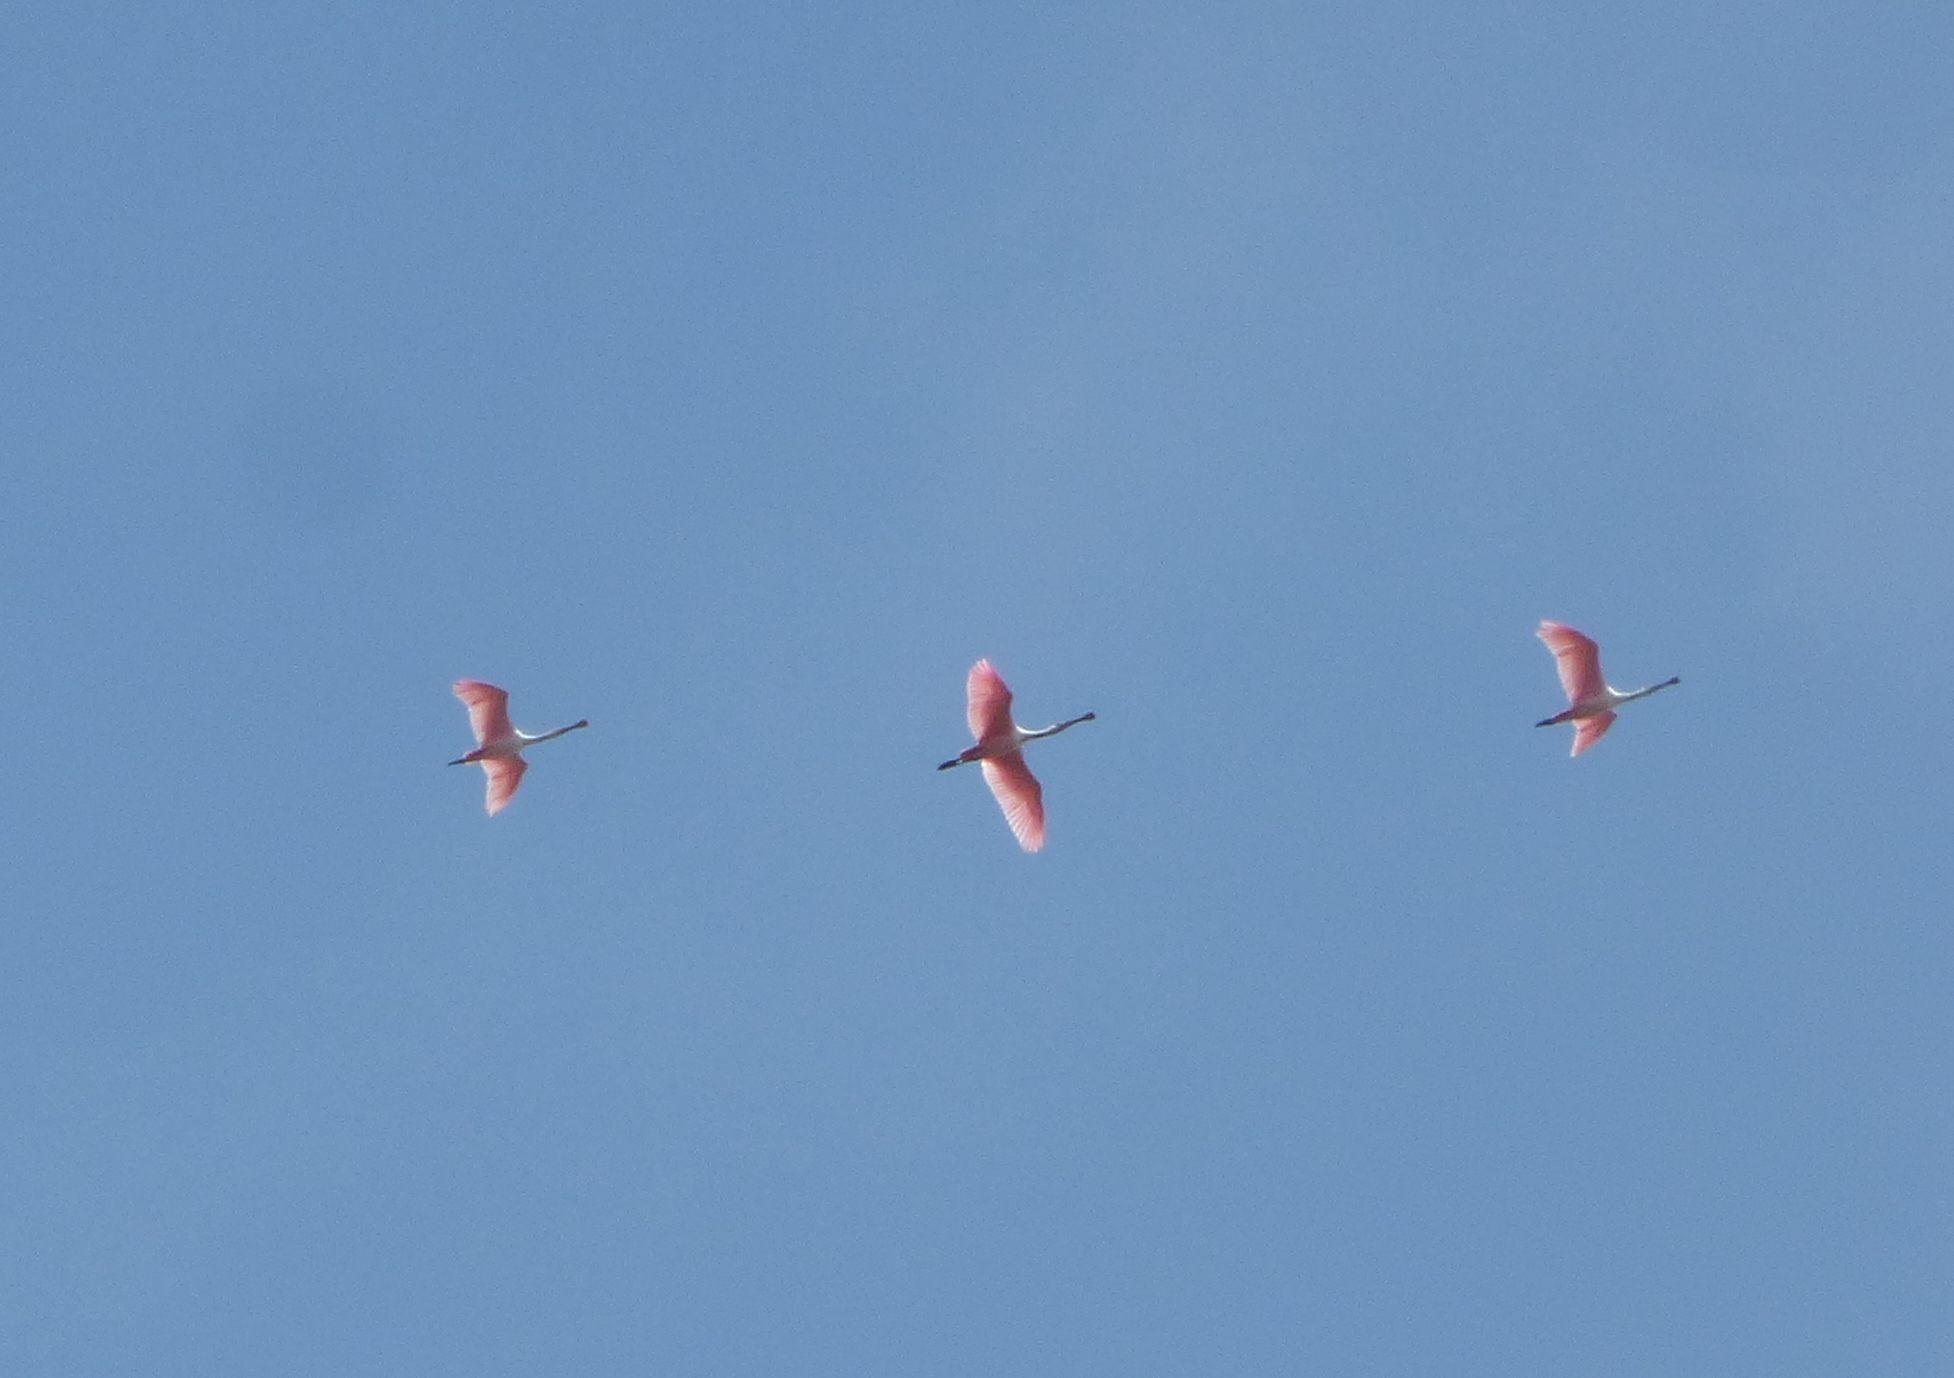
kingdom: Animalia
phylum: Chordata
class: Aves
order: Pelecaniformes
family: Threskiornithidae
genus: Platalea
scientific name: Platalea ajaja
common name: Roseate spoonbill
